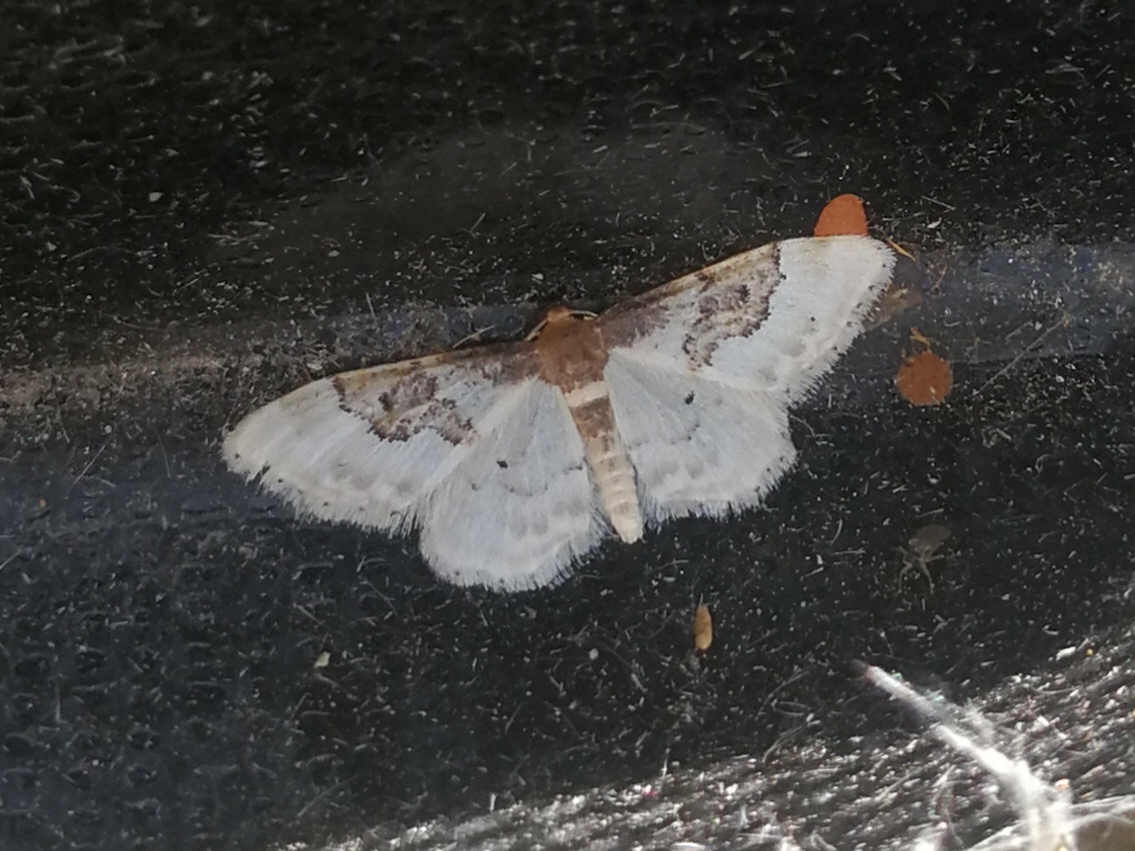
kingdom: Animalia
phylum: Arthropoda
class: Insecta
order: Lepidoptera
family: Geometridae
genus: Idaea
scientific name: Idaea rusticata
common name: Least carpet
